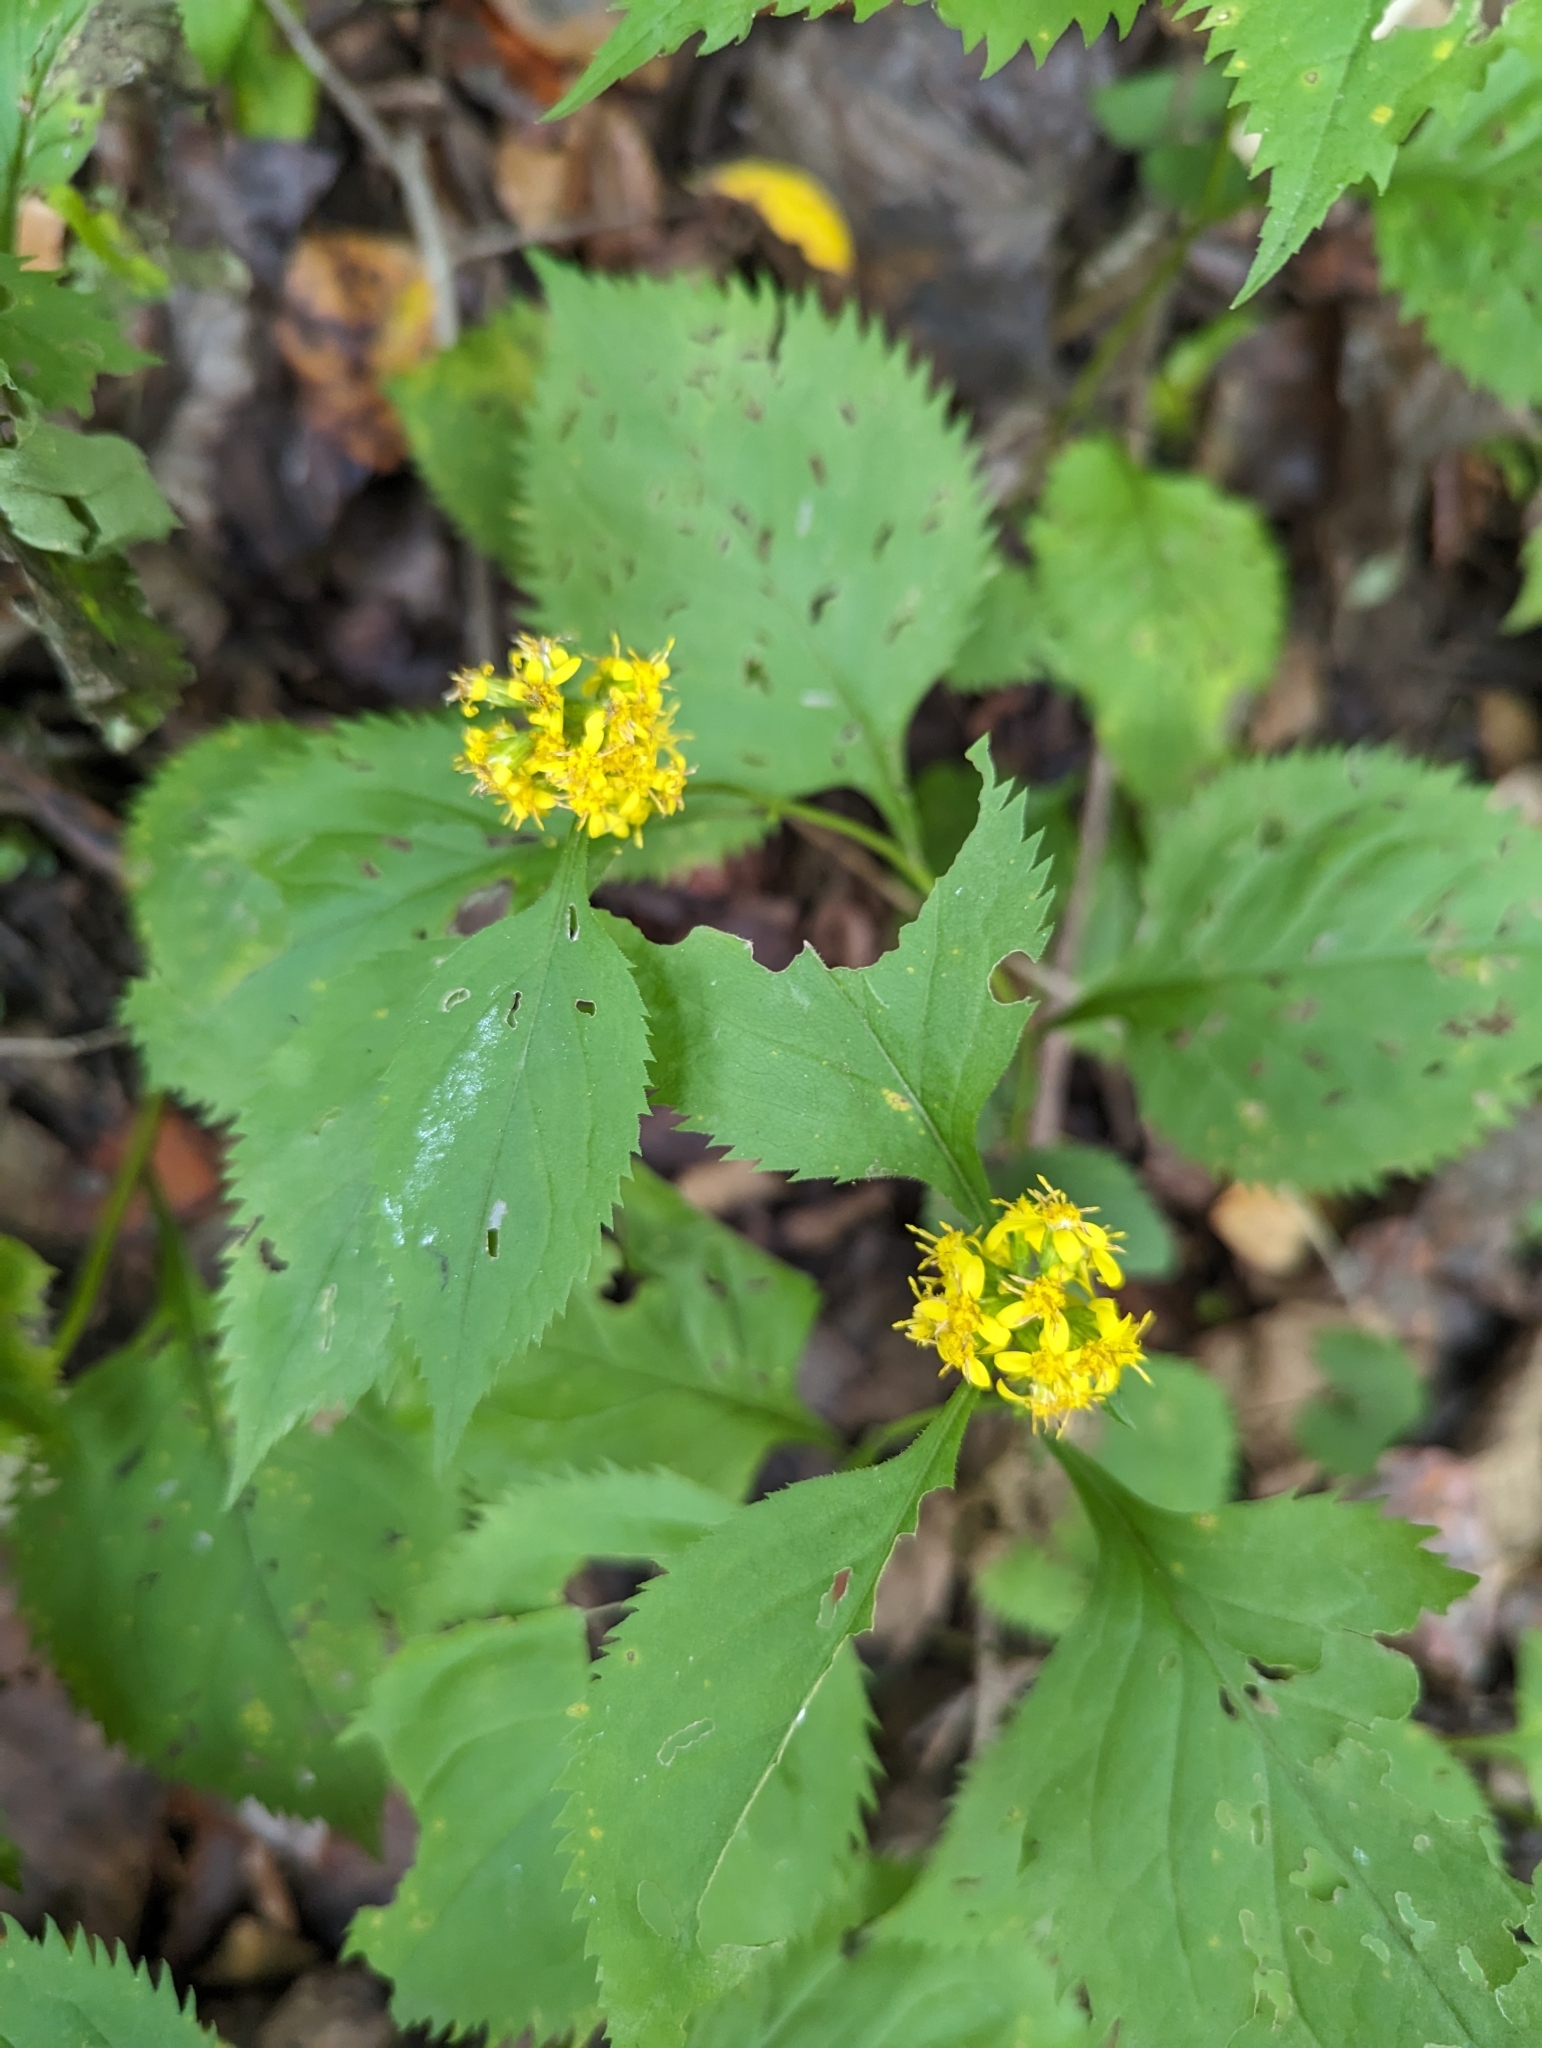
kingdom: Plantae
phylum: Tracheophyta
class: Magnoliopsida
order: Asterales
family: Asteraceae
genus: Solidago
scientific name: Solidago flexicaulis
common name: Zig-zag goldenrod
